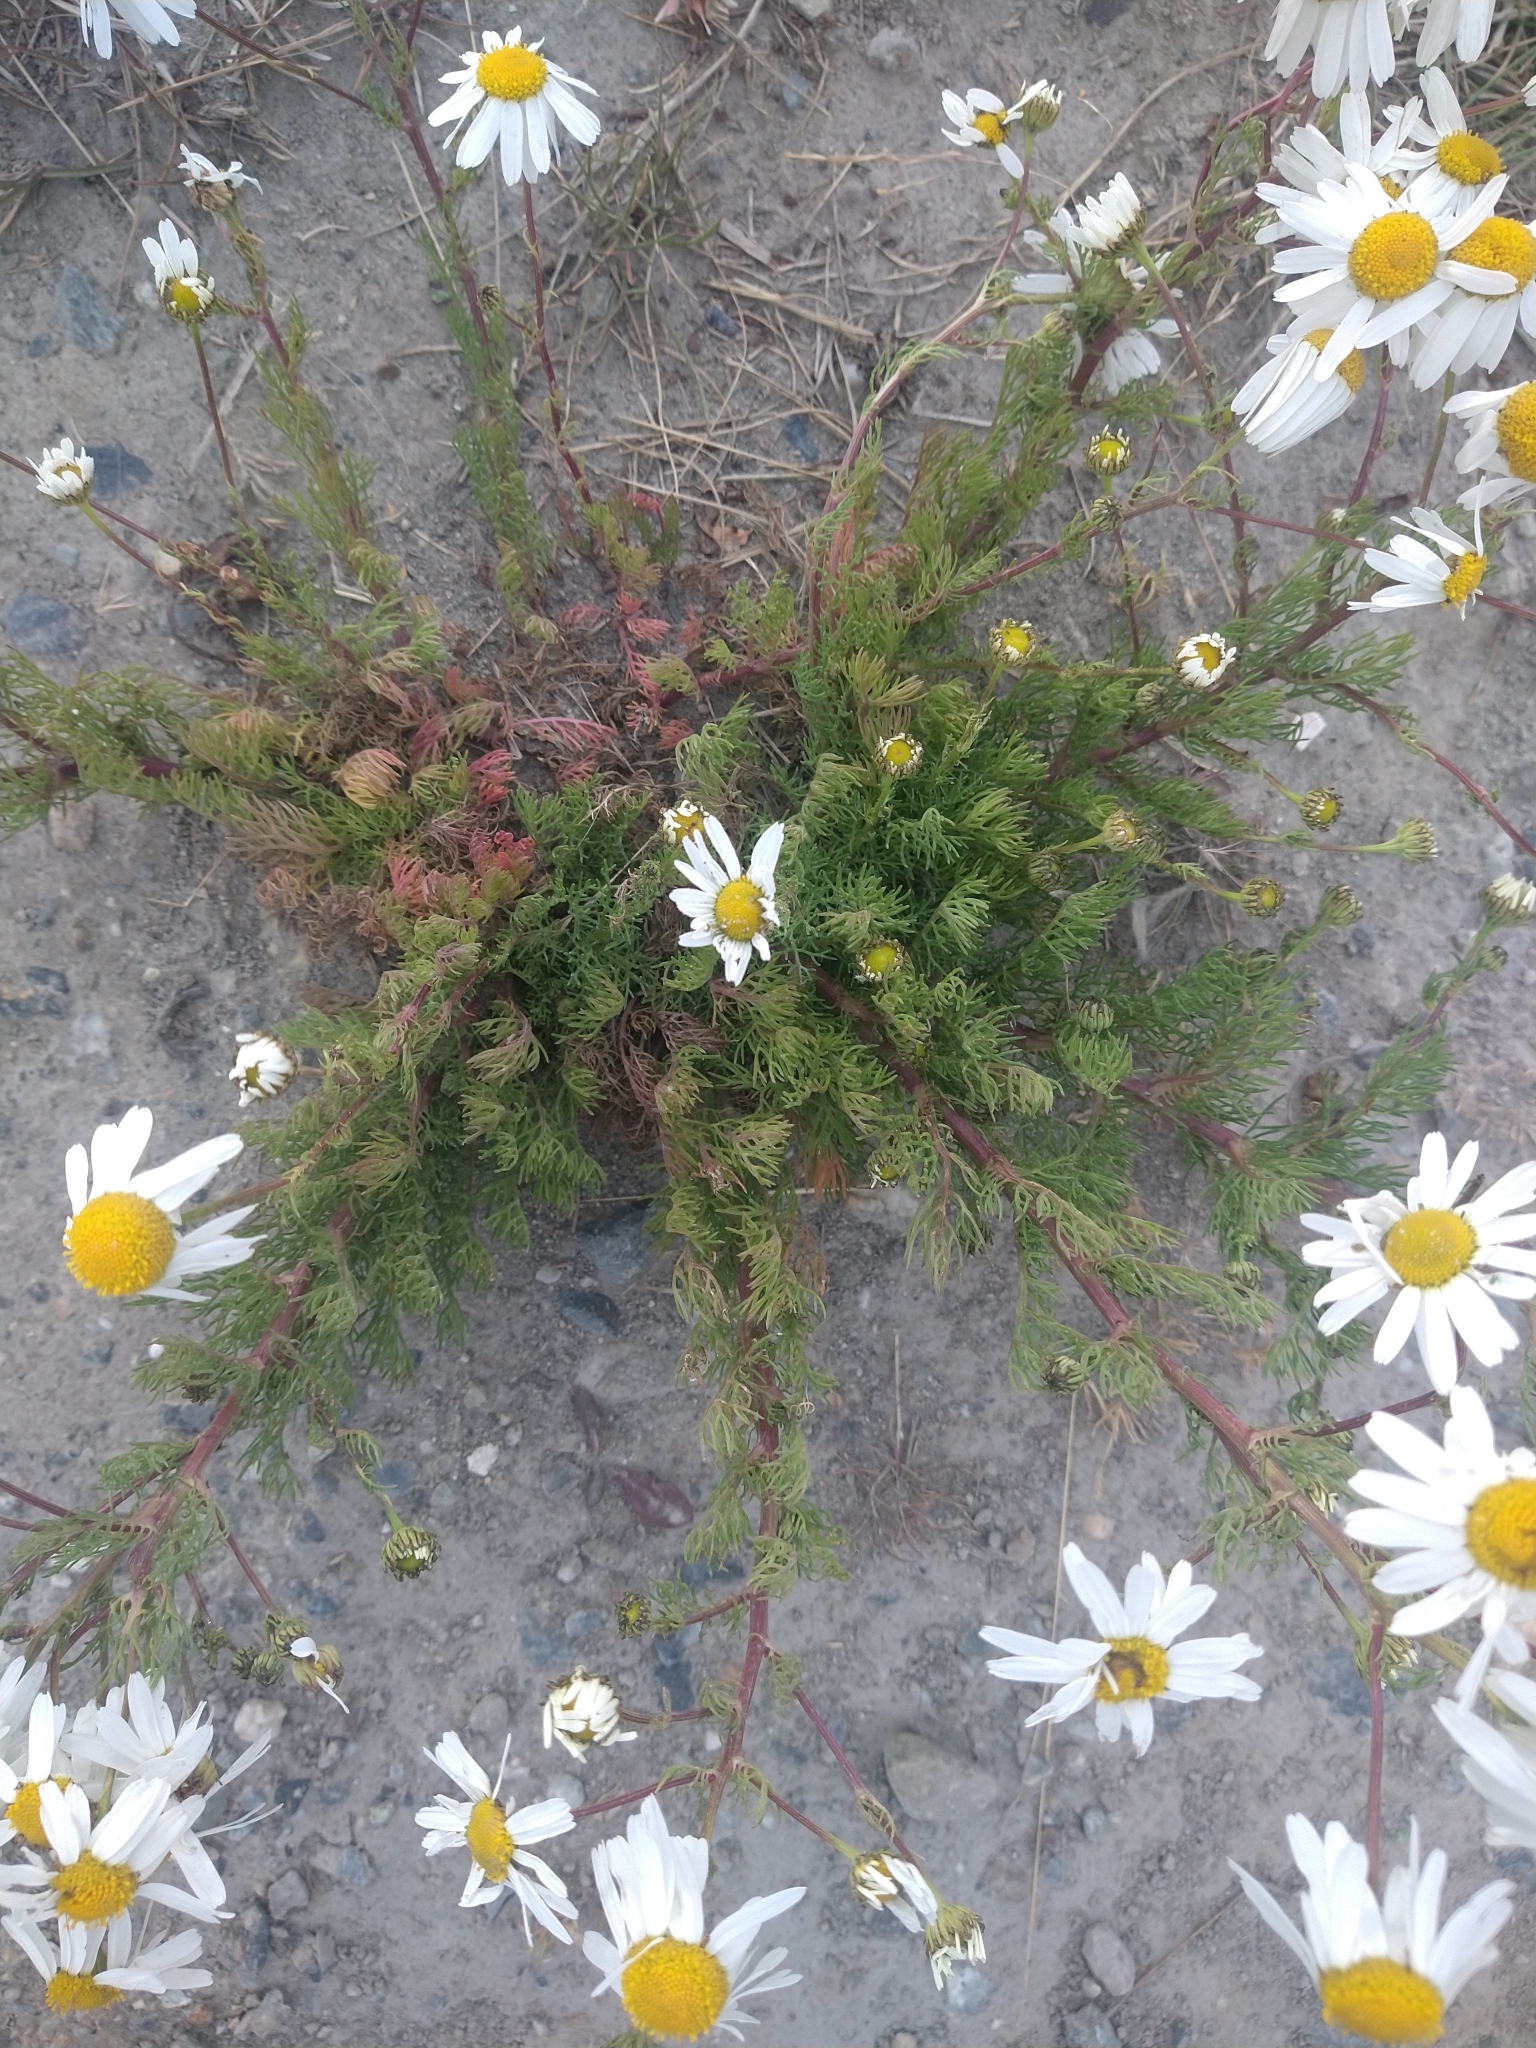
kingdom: Plantae
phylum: Tracheophyta
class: Magnoliopsida
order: Asterales
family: Asteraceae
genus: Tripleurospermum
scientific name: Tripleurospermum maritimum
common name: Sea mayweed
